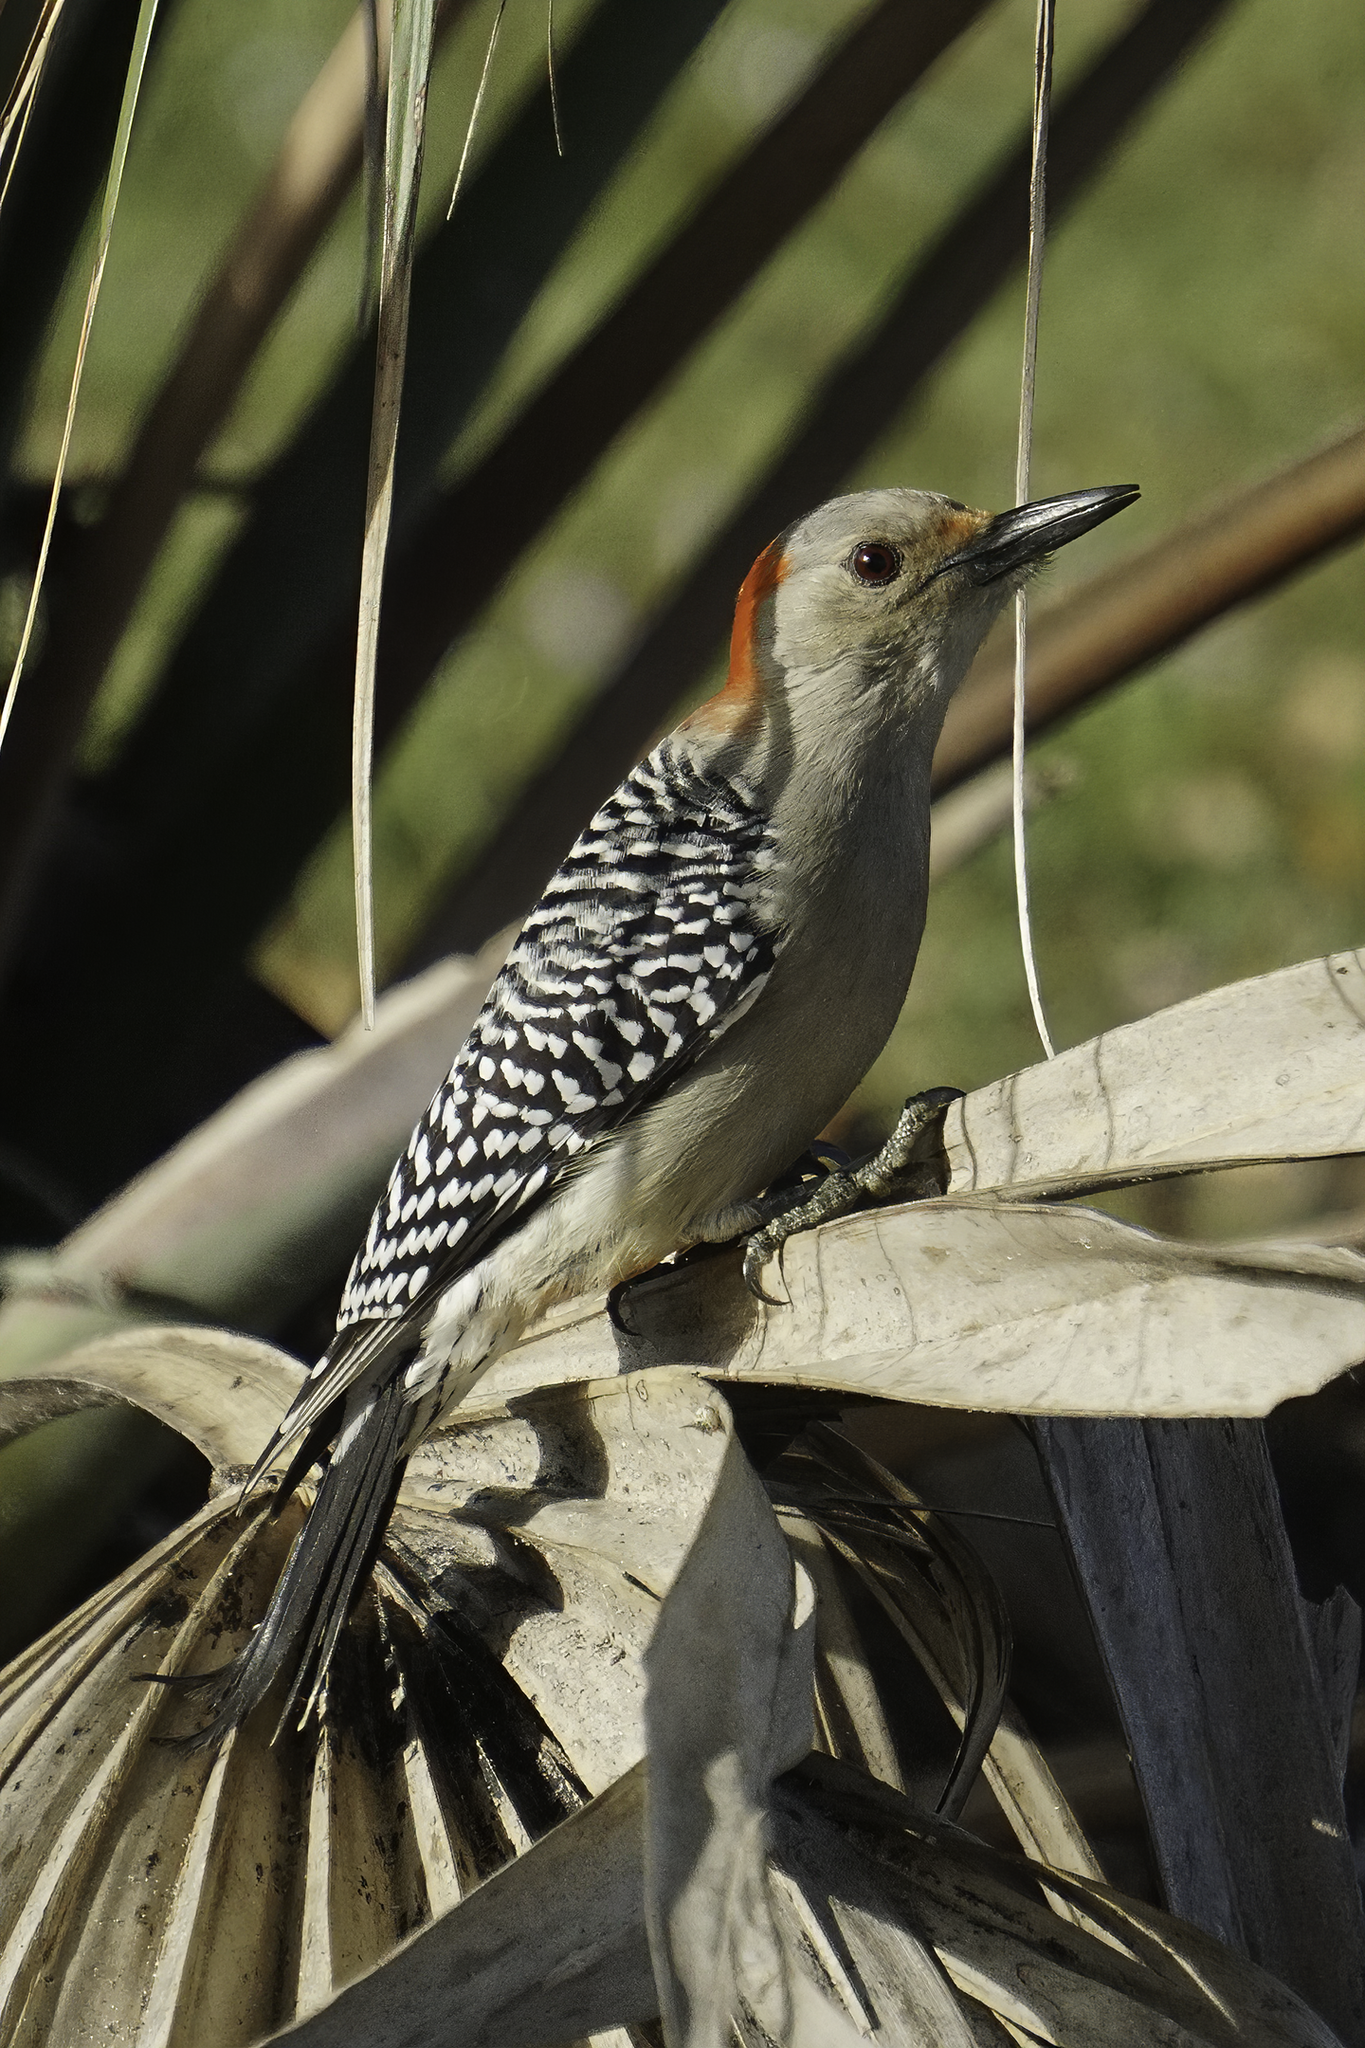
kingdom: Animalia
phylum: Chordata
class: Aves
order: Piciformes
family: Picidae
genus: Melanerpes
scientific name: Melanerpes carolinus
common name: Red-bellied woodpecker
